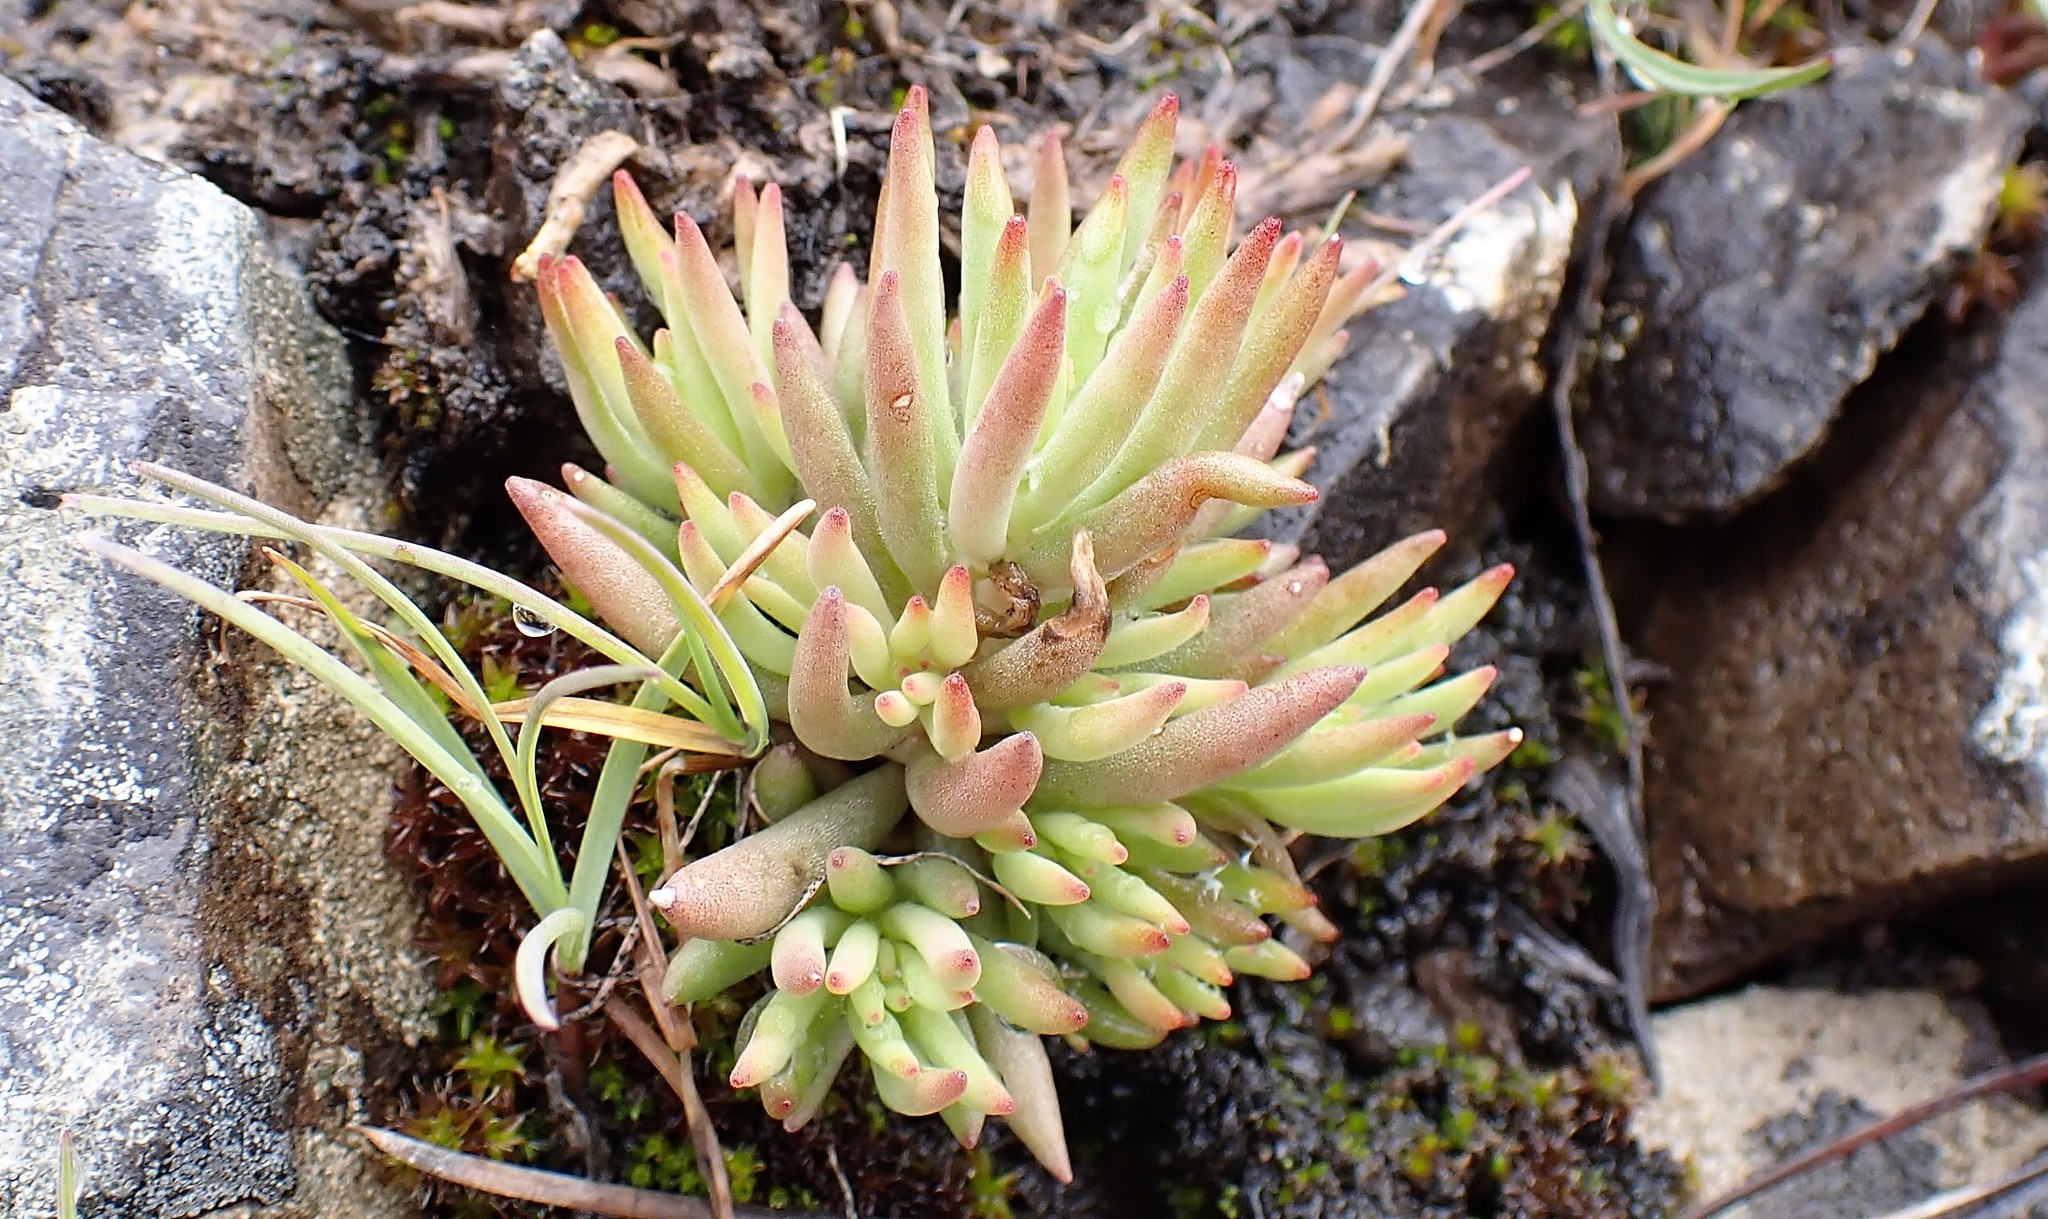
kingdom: Plantae
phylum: Tracheophyta
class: Magnoliopsida
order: Saxifragales
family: Crassulaceae
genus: Sedum
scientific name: Sedum lanceolatum
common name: Common stonecrop
